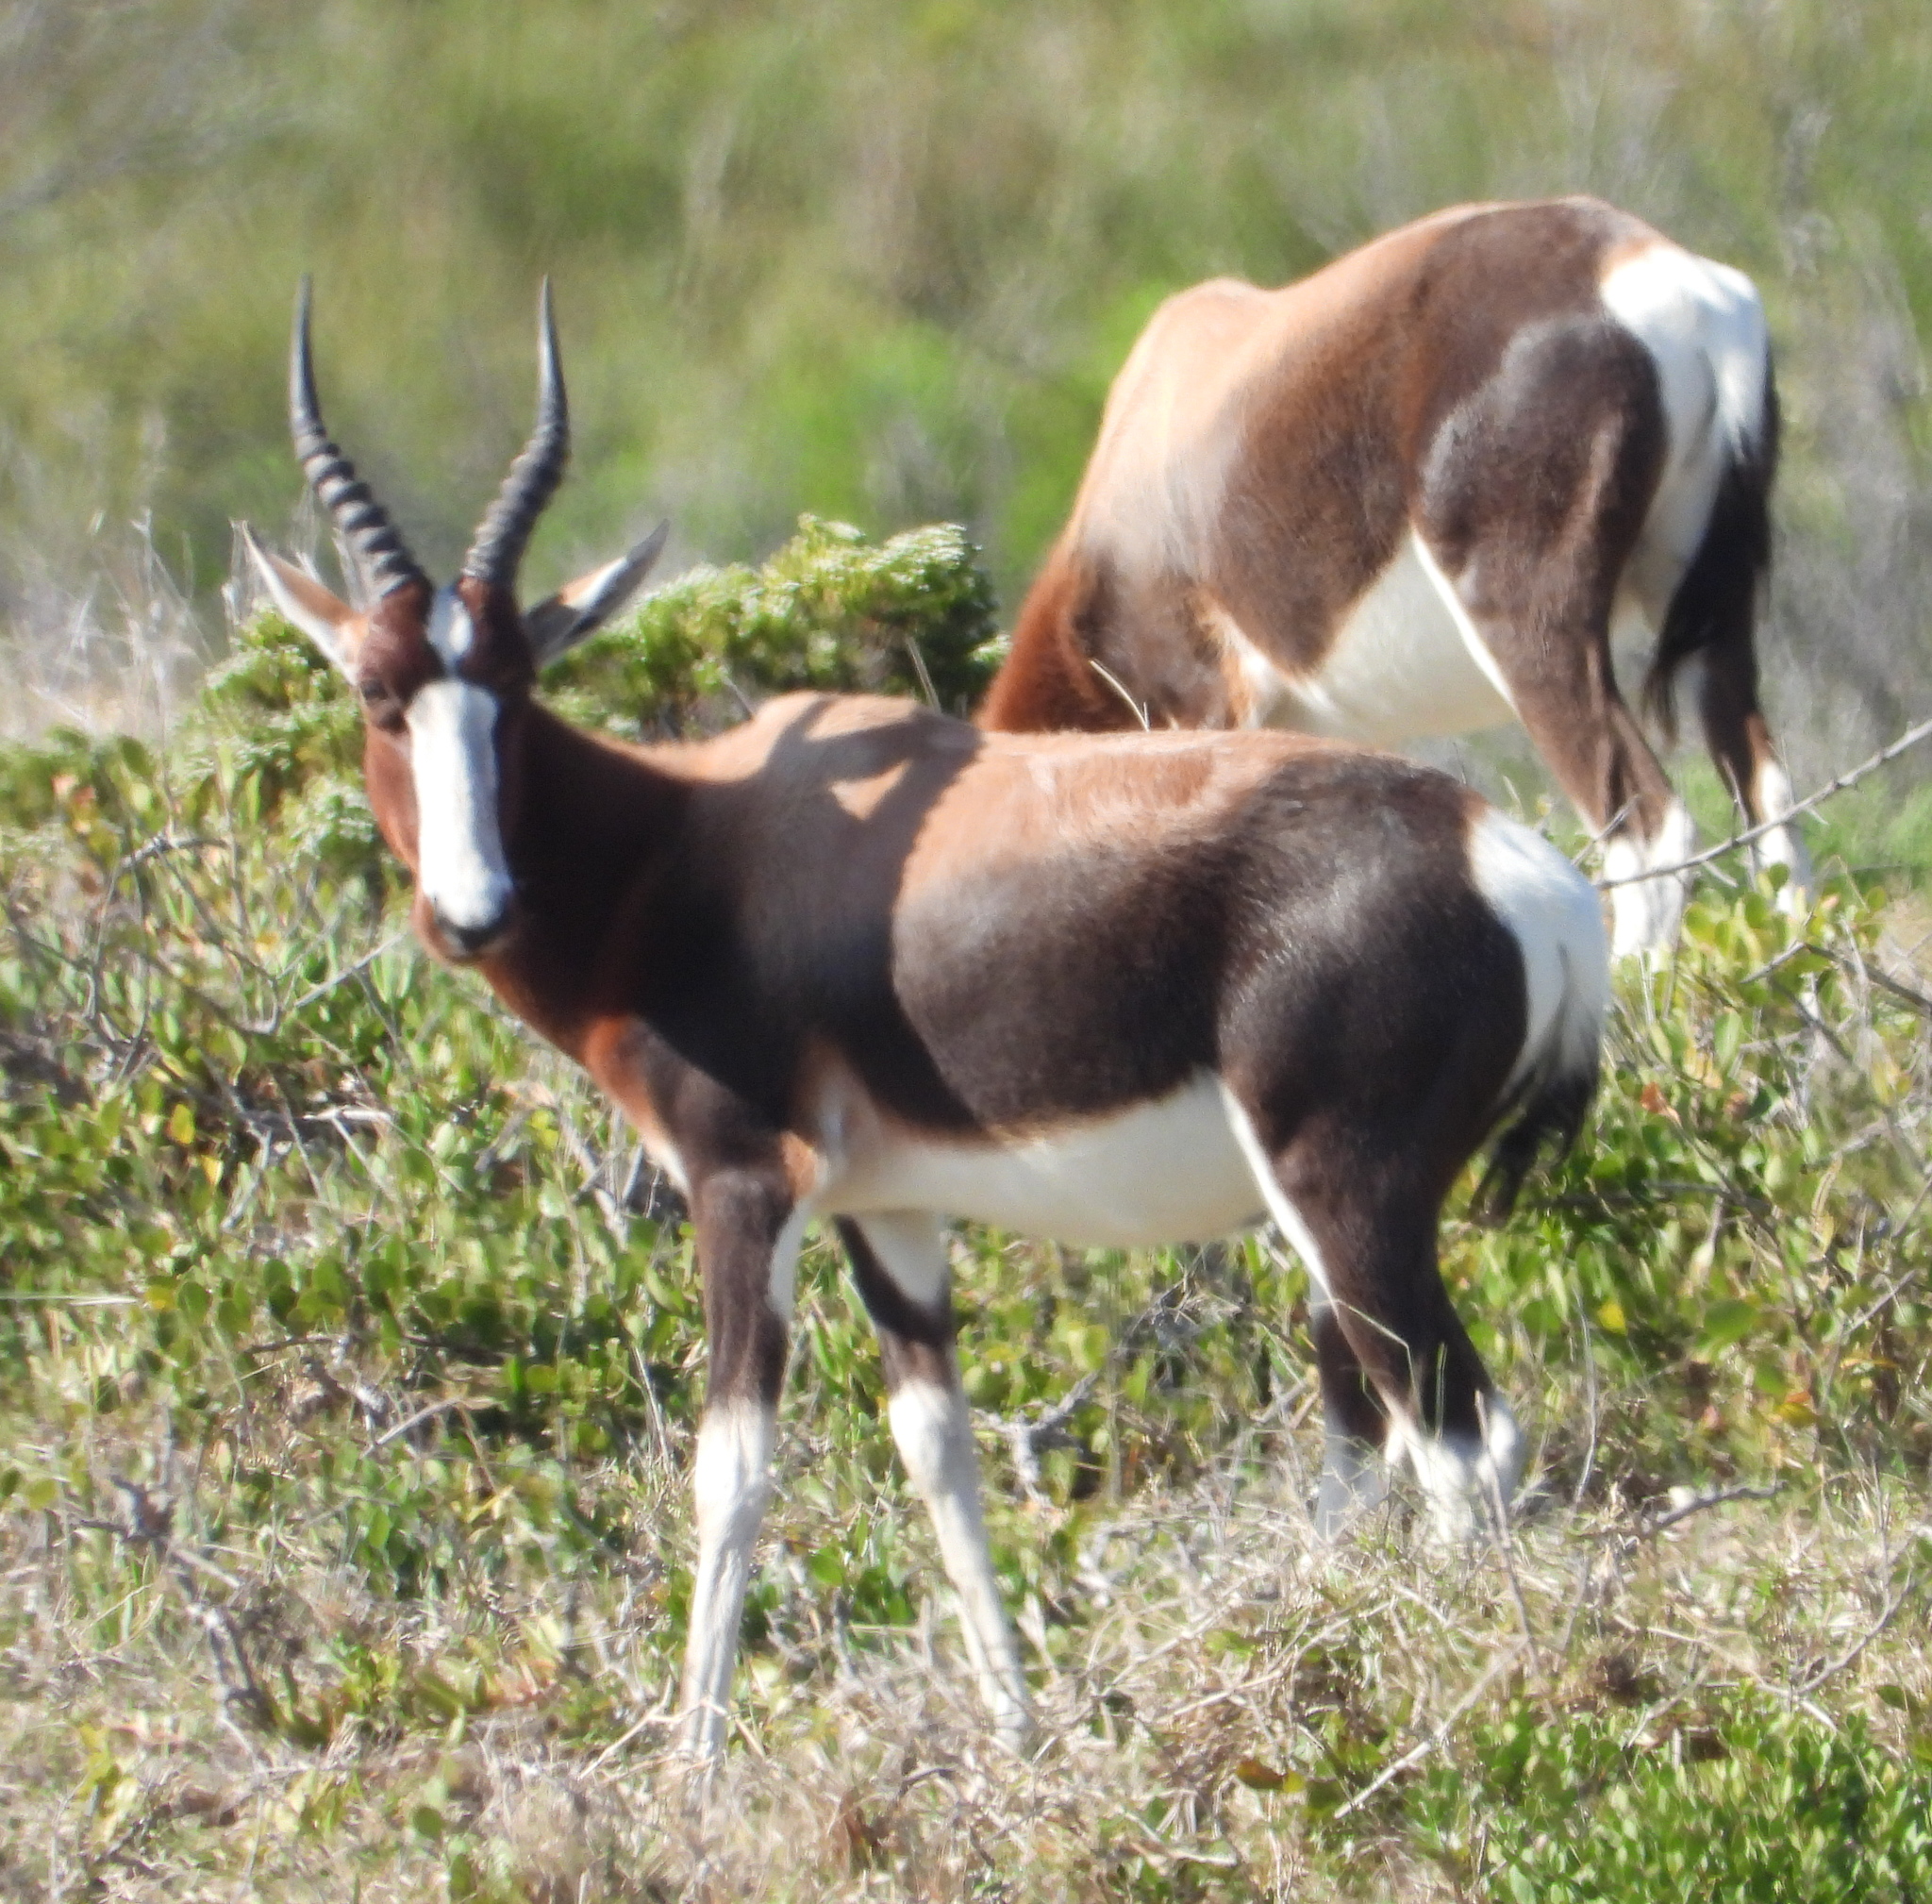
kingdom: Animalia
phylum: Chordata
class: Mammalia
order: Artiodactyla
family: Bovidae
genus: Damaliscus
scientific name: Damaliscus pygargus
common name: Bontebok
